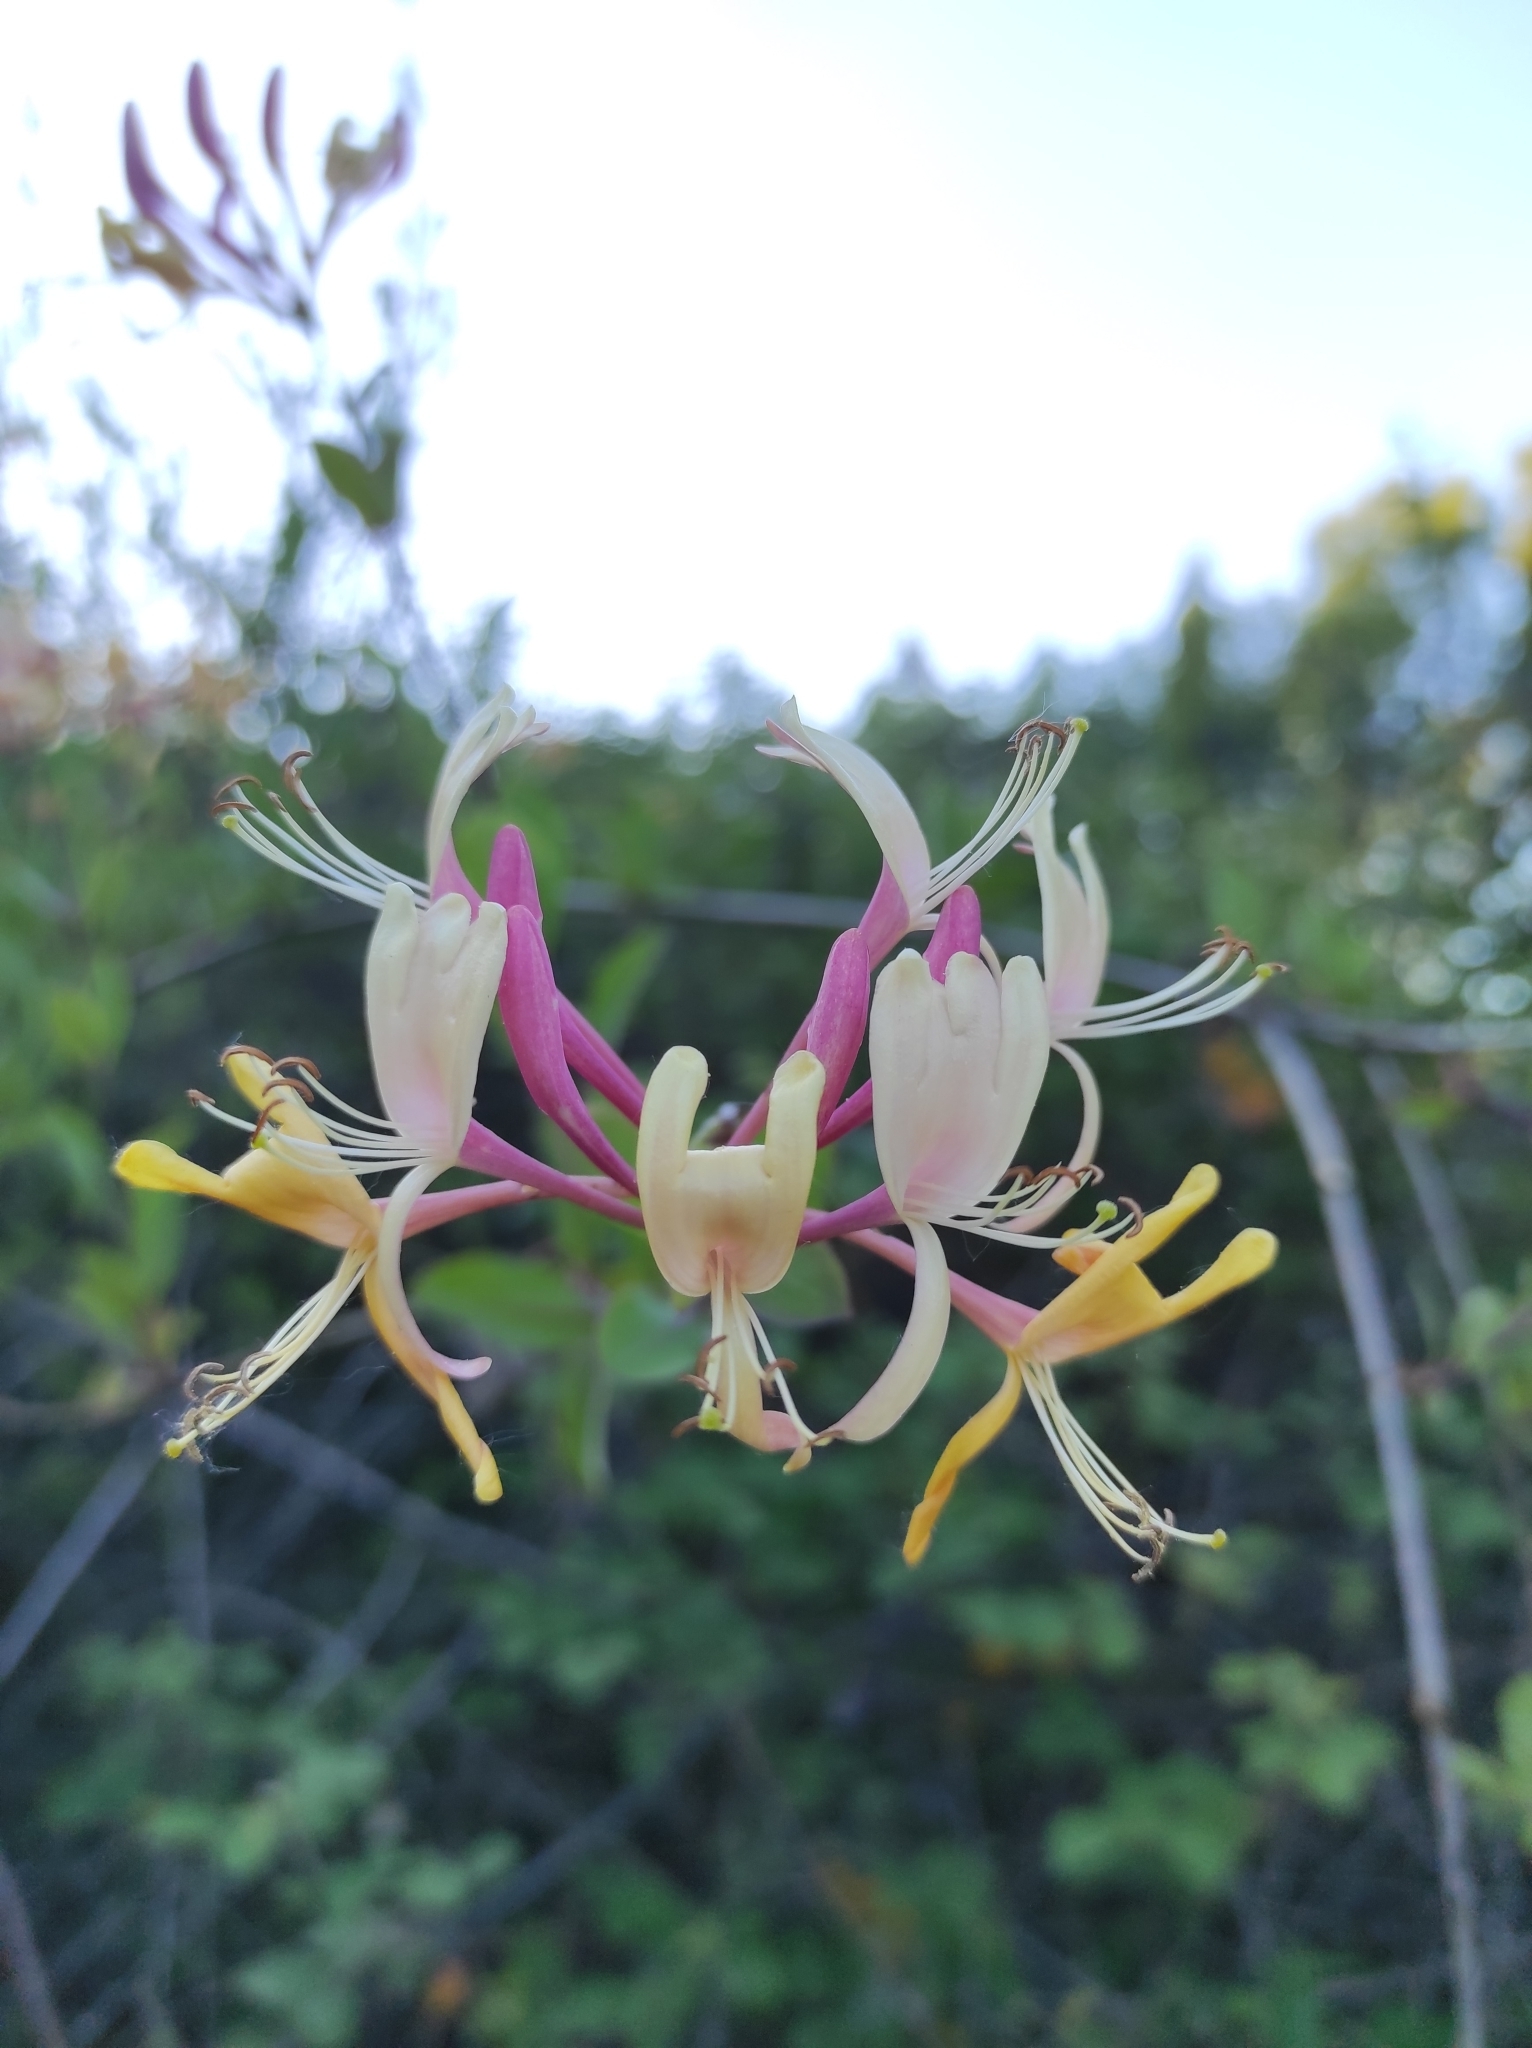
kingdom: Plantae
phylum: Tracheophyta
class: Magnoliopsida
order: Dipsacales
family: Caprifoliaceae
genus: Lonicera
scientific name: Lonicera etrusca
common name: Etruscan honeysuckle
